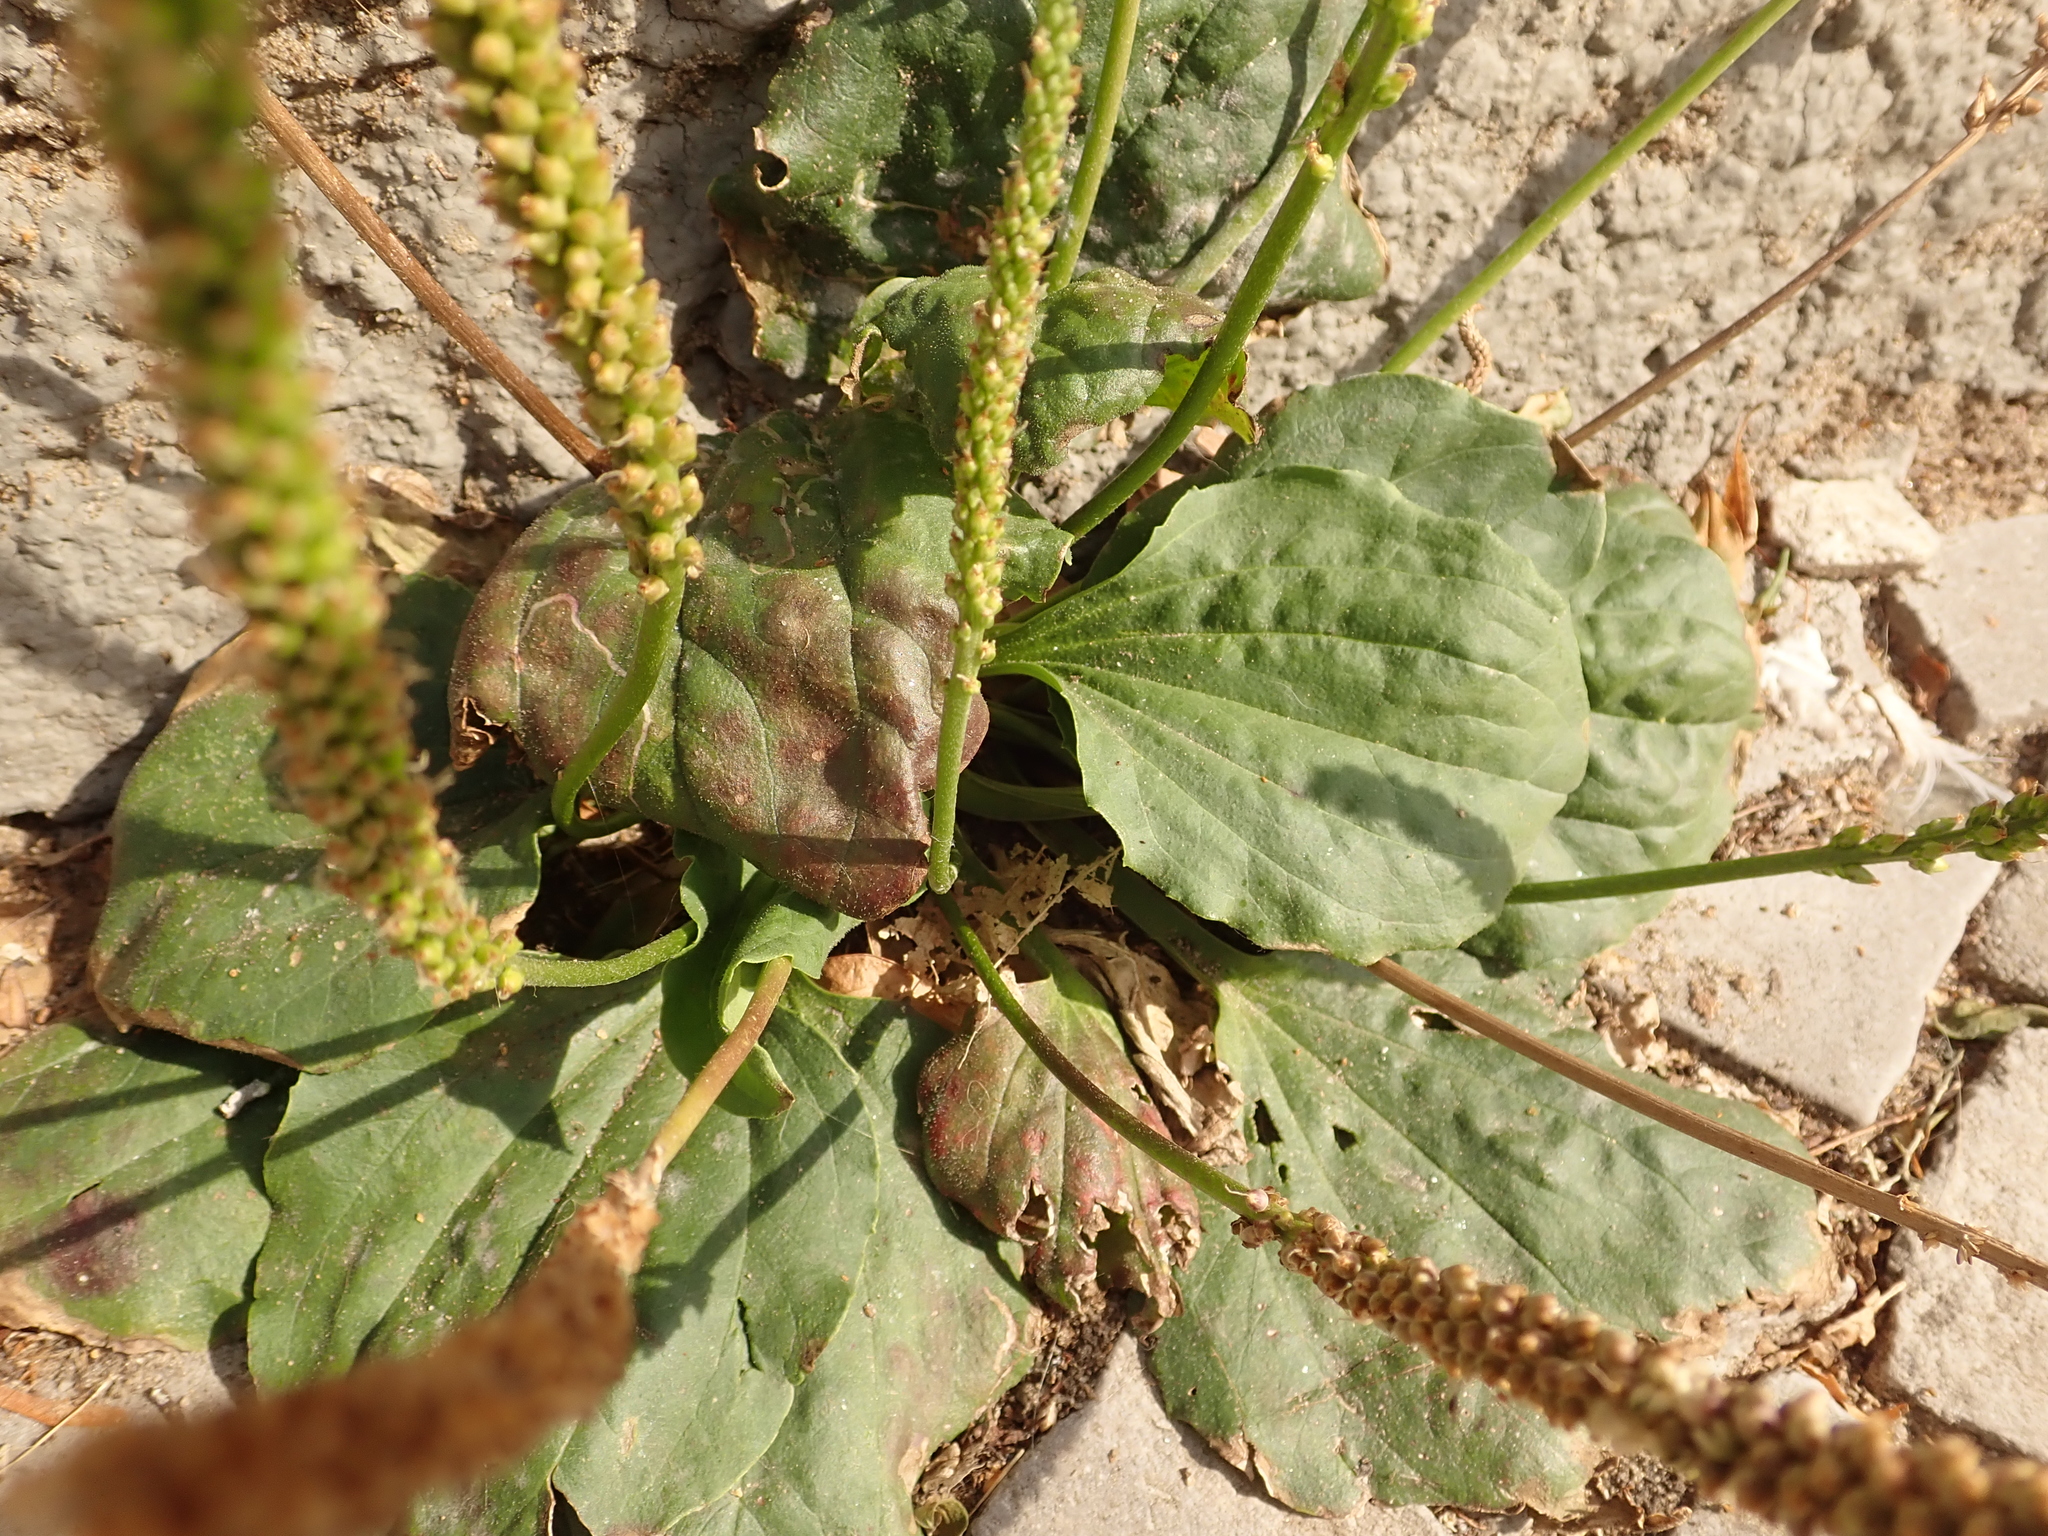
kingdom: Plantae
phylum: Tracheophyta
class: Magnoliopsida
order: Lamiales
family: Plantaginaceae
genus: Plantago
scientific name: Plantago major
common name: Common plantain
